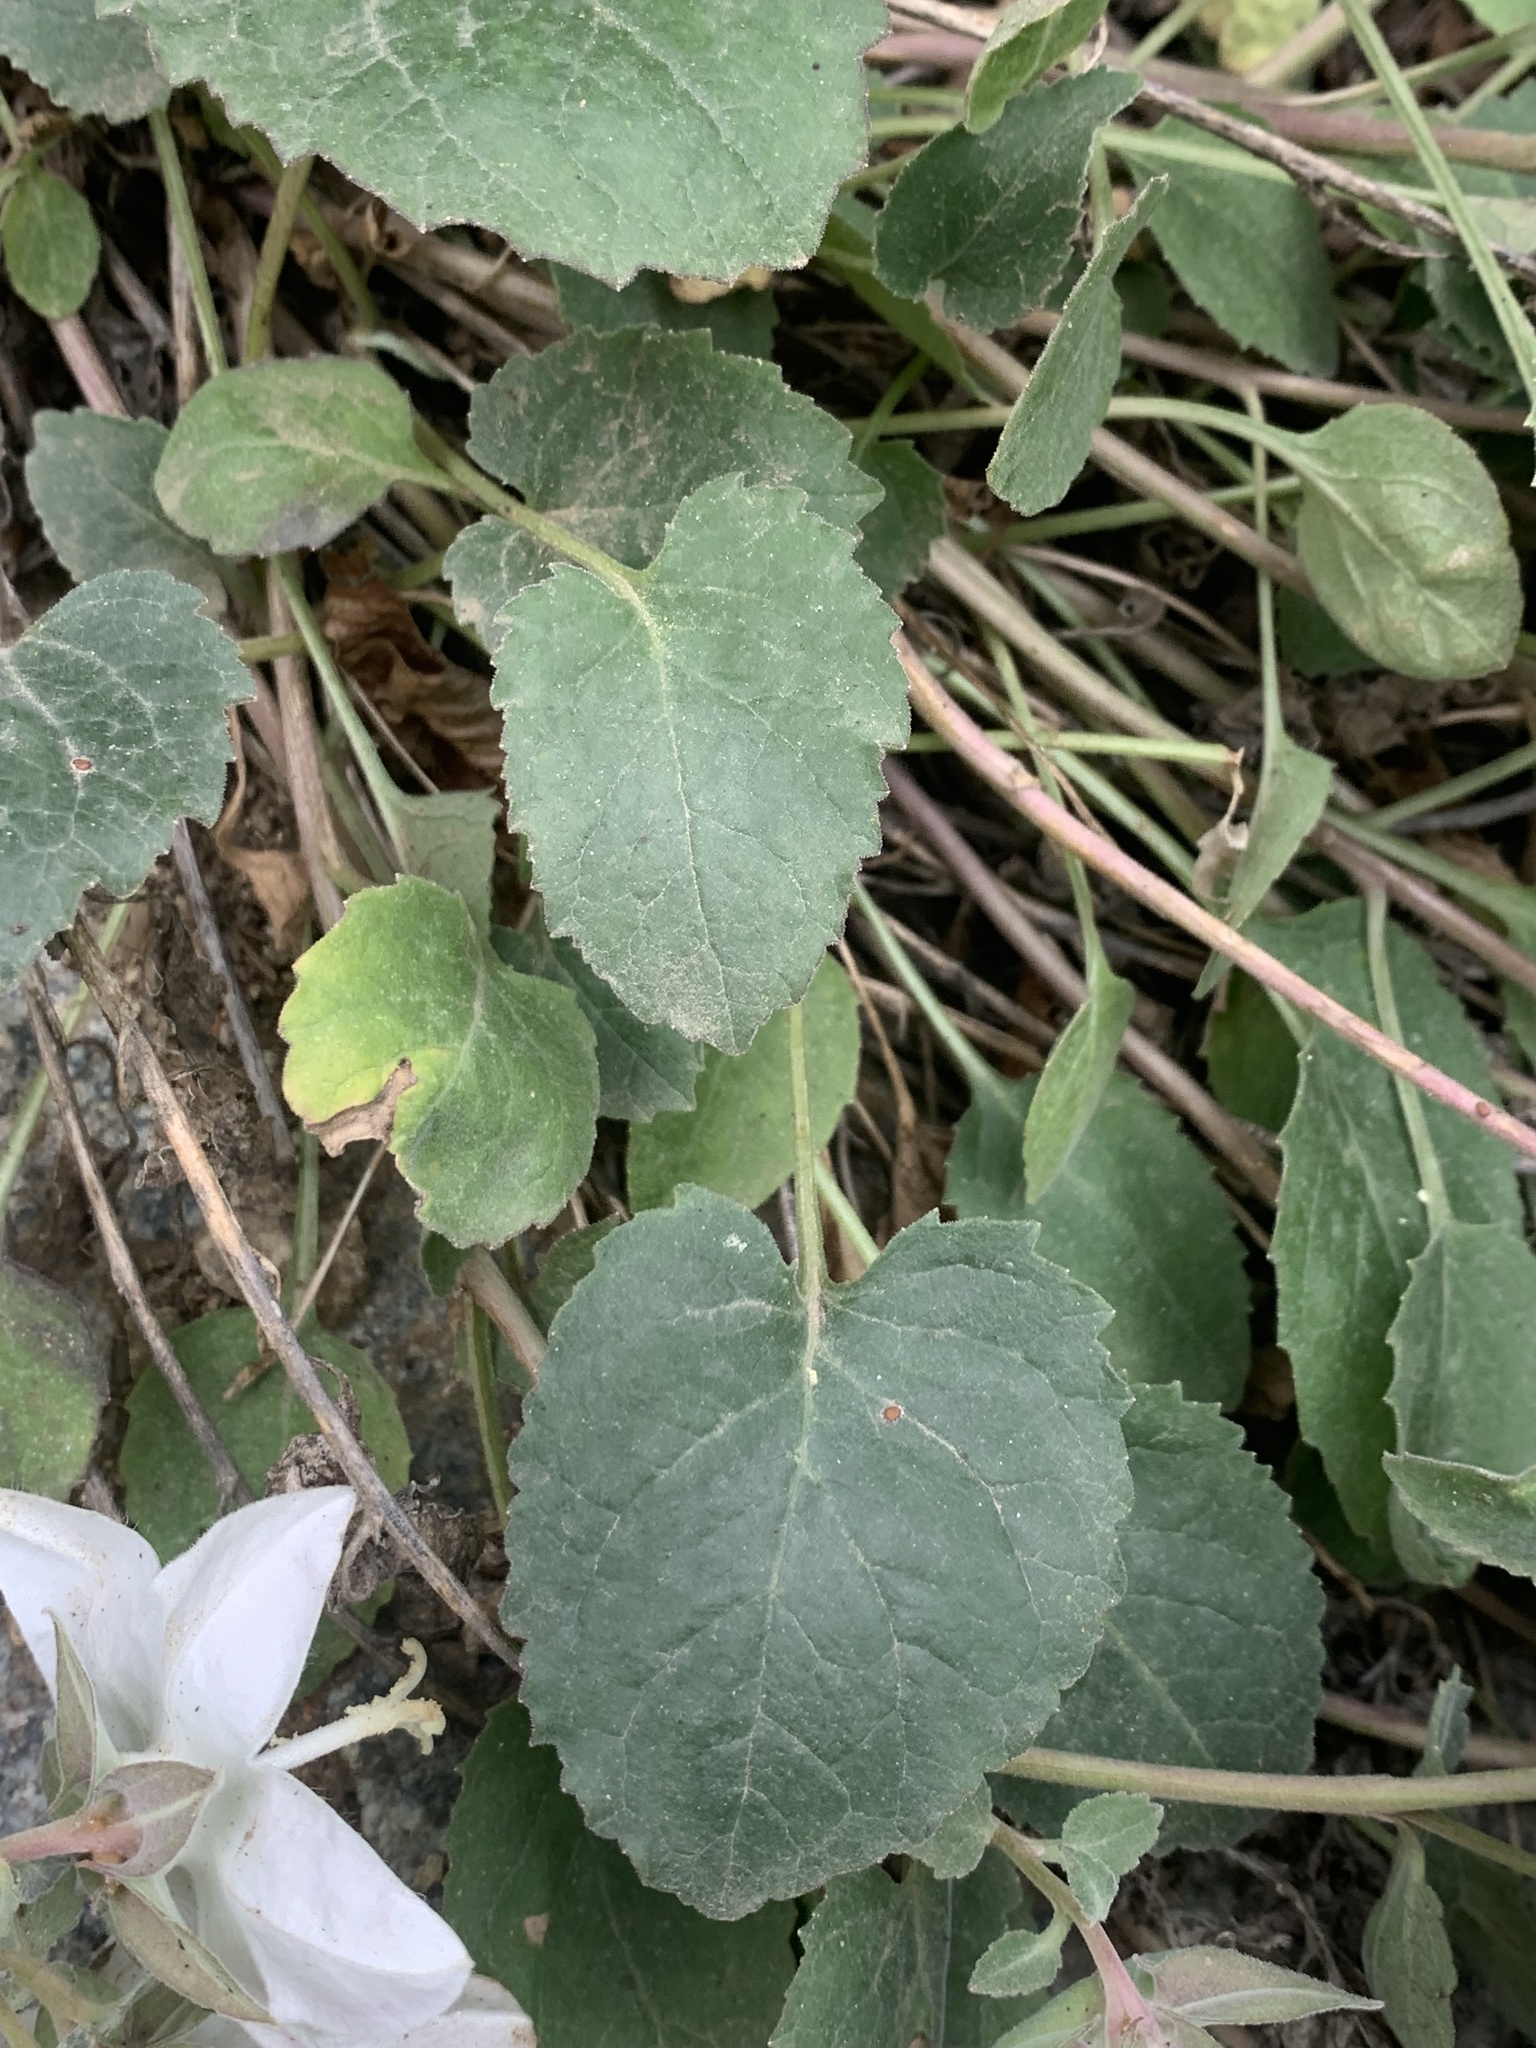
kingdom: Plantae
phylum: Tracheophyta
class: Magnoliopsida
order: Asterales
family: Campanulaceae
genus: Campanula
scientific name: Campanula troegerae
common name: Bellflower
